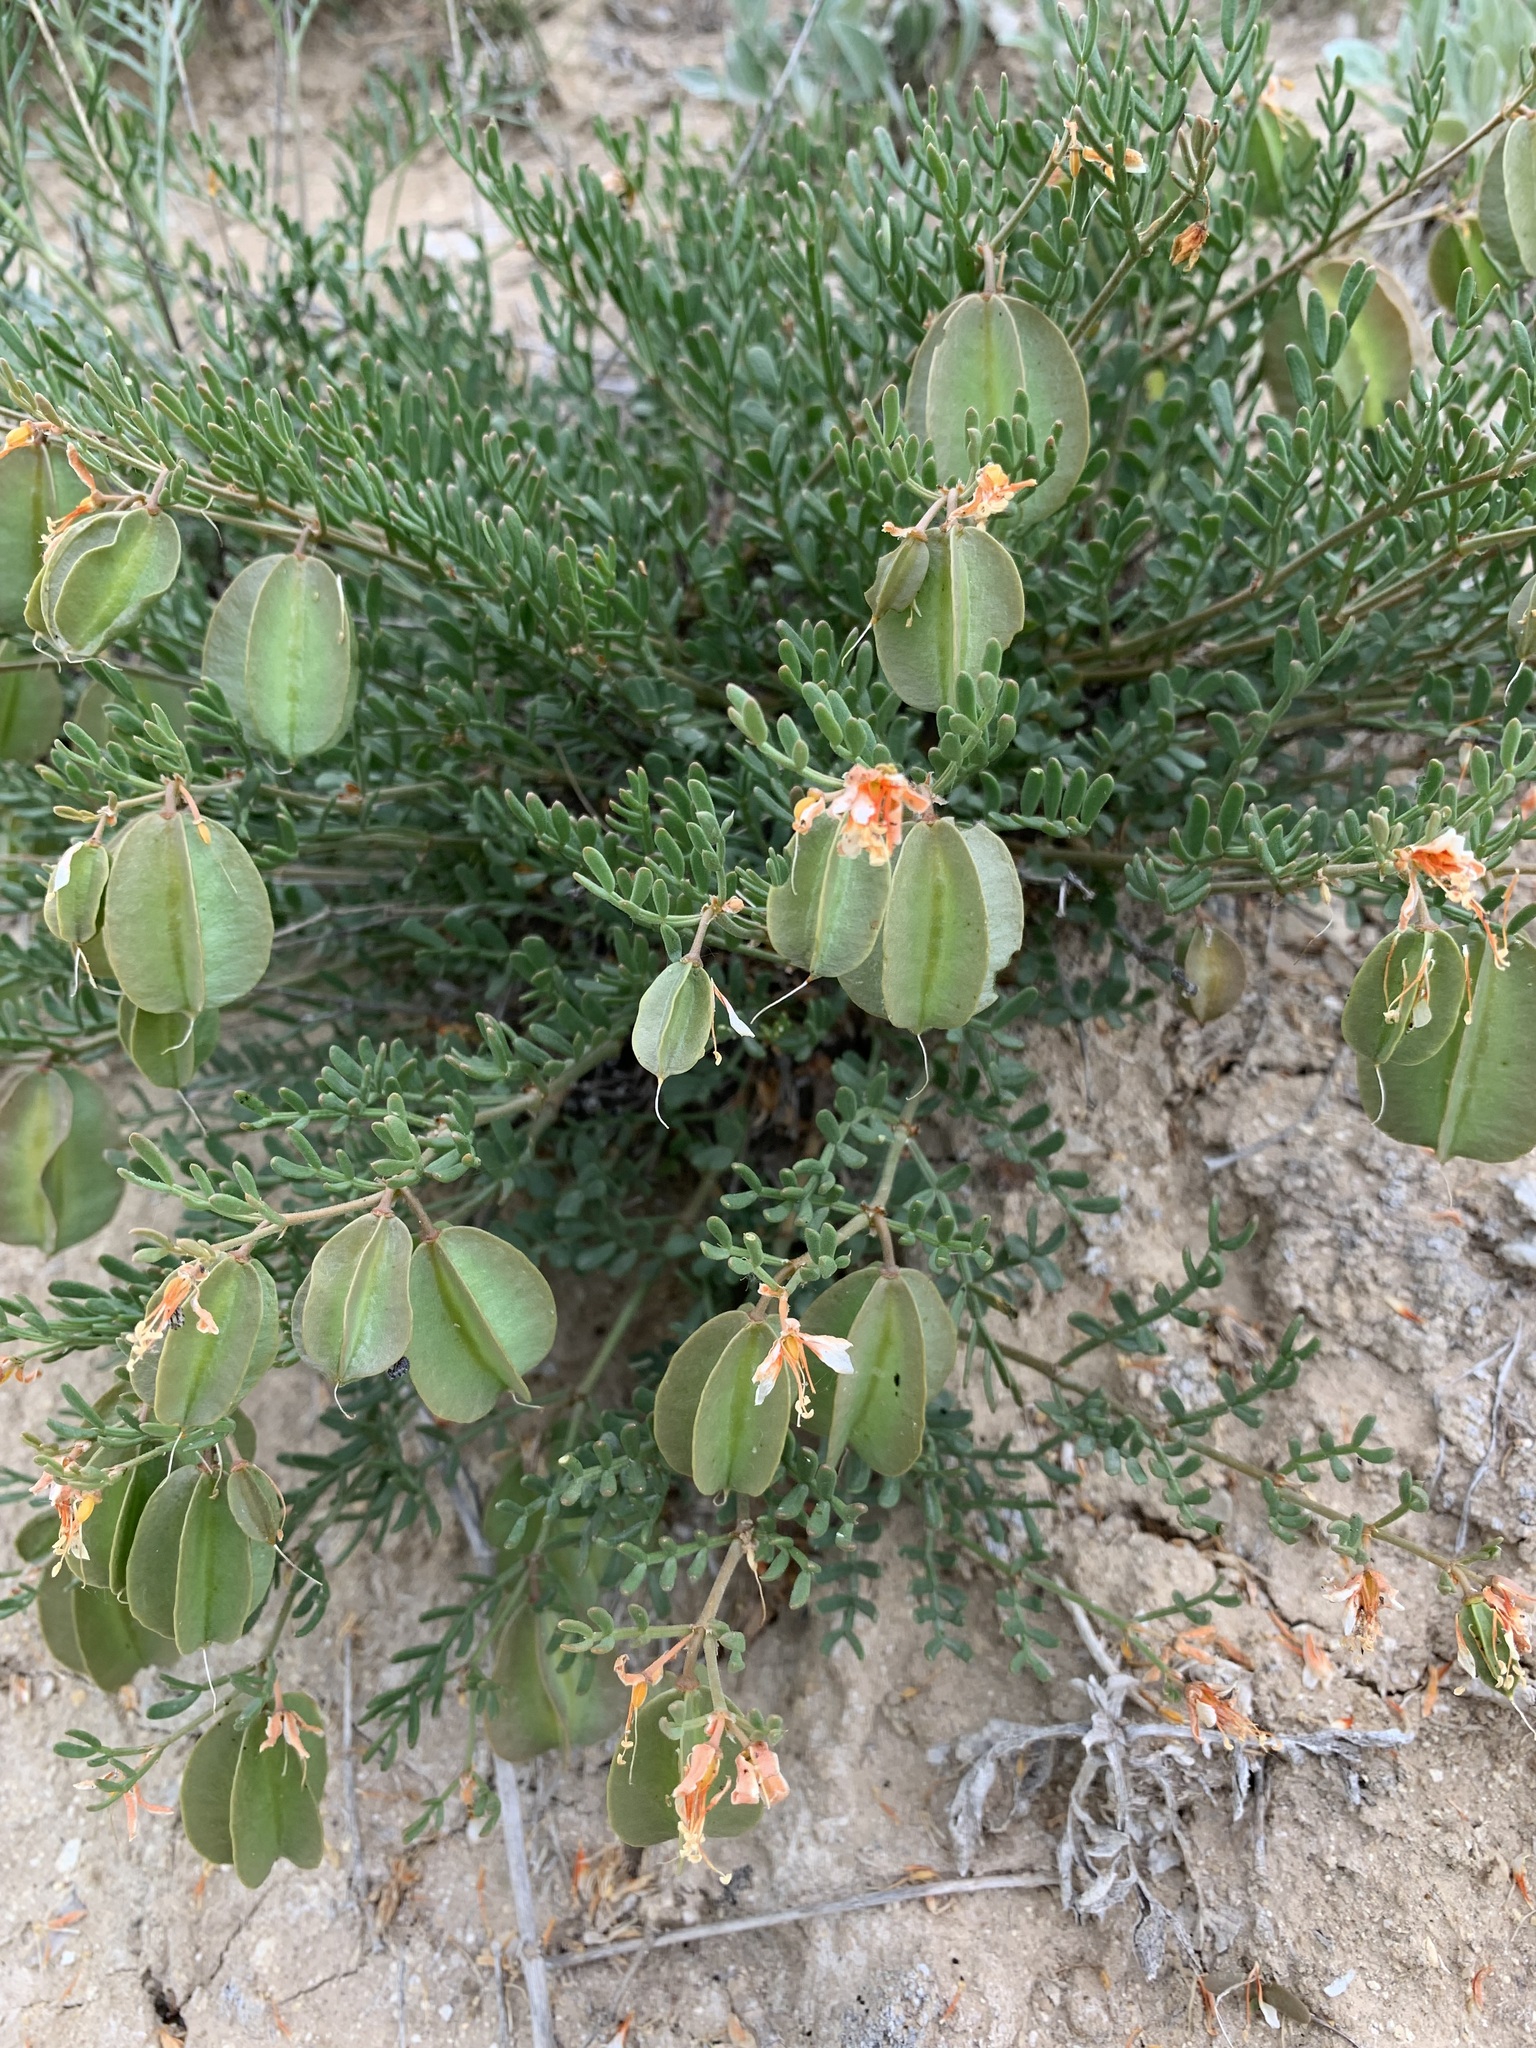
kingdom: Plantae
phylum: Tracheophyta
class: Magnoliopsida
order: Zygophyllales
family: Zygophyllaceae
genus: Zygophyllum
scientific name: Zygophyllum pinnatum
